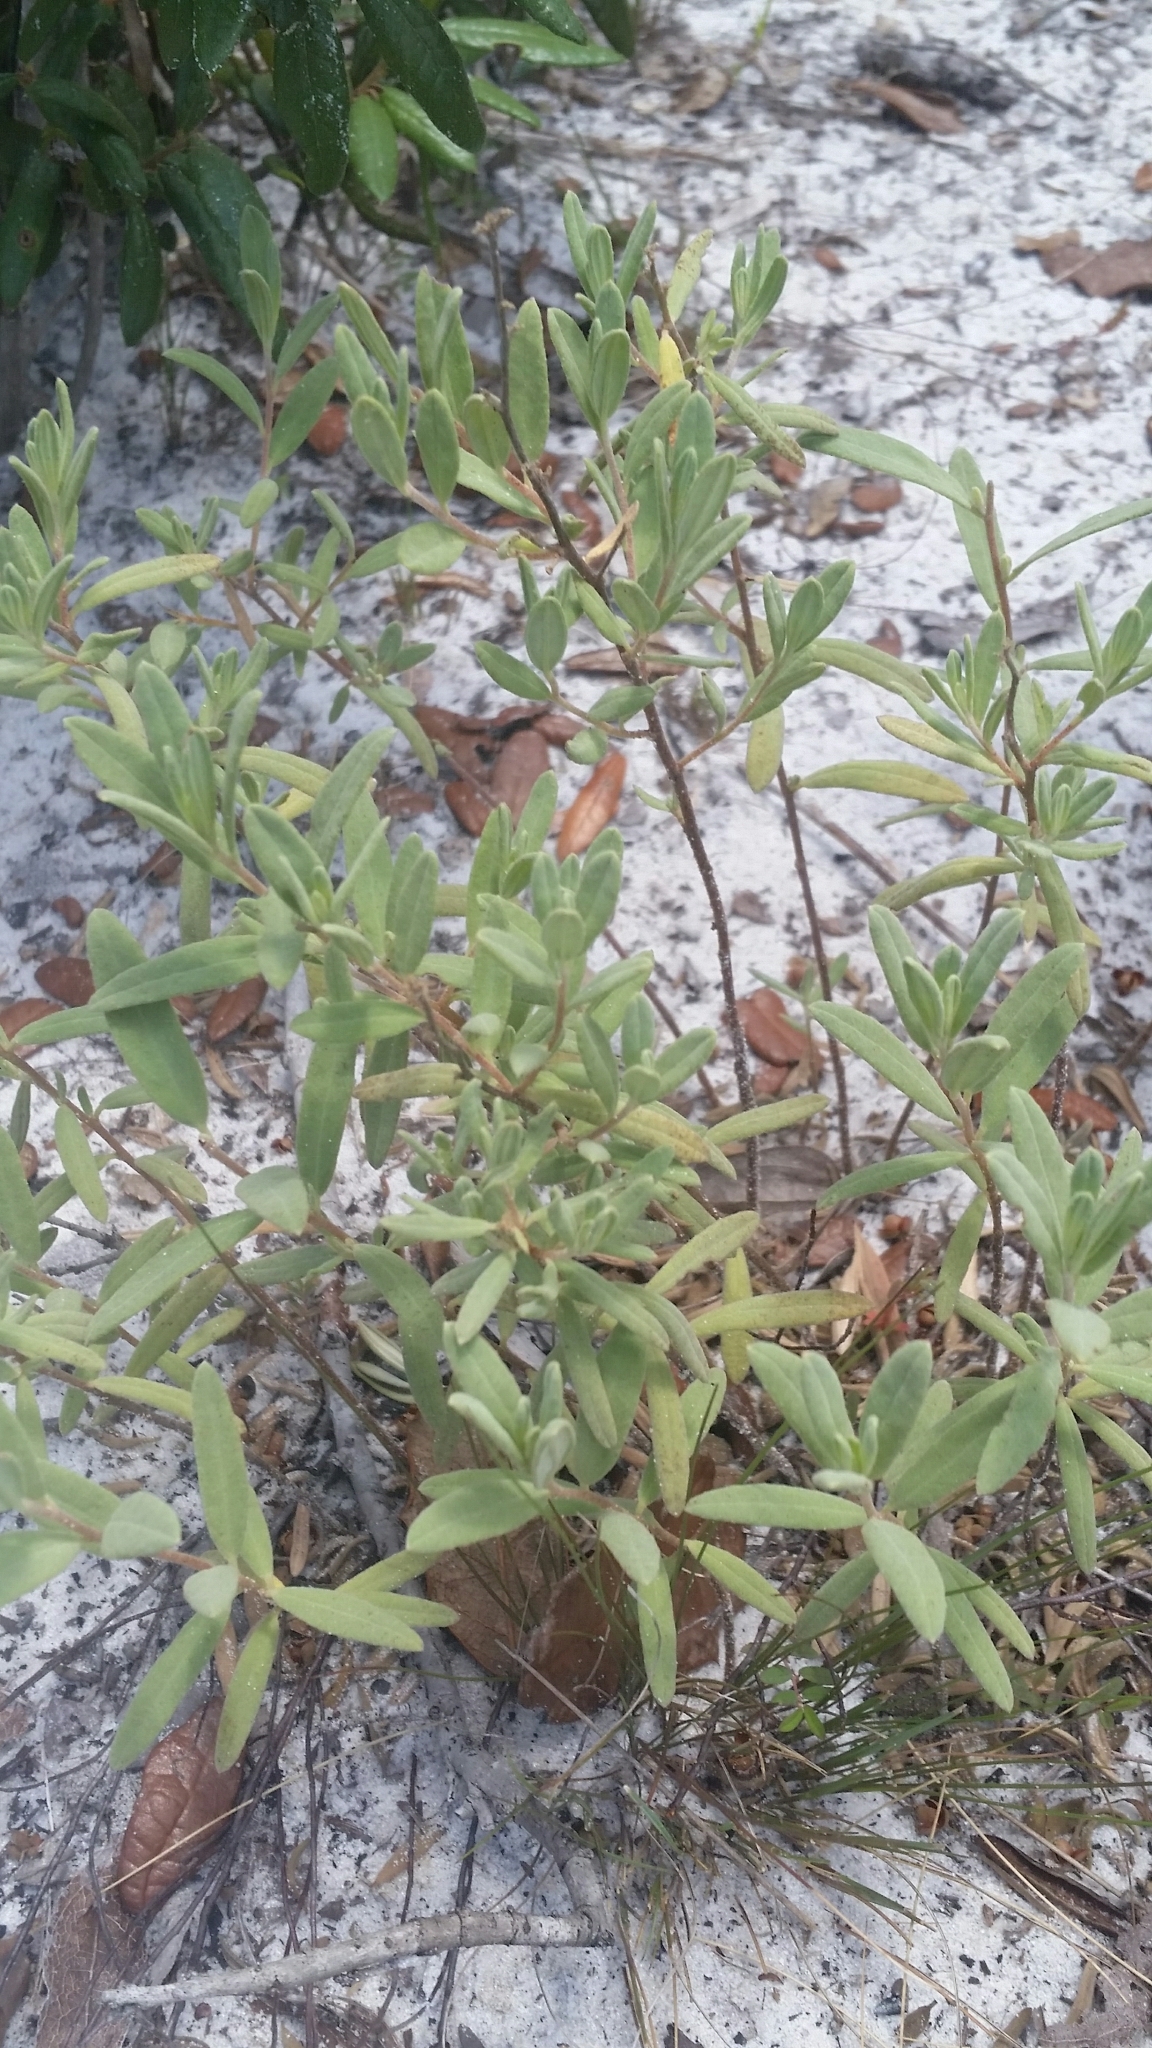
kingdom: Plantae
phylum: Tracheophyta
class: Magnoliopsida
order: Malvales
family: Cistaceae
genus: Crocanthemum
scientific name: Crocanthemum nashii
